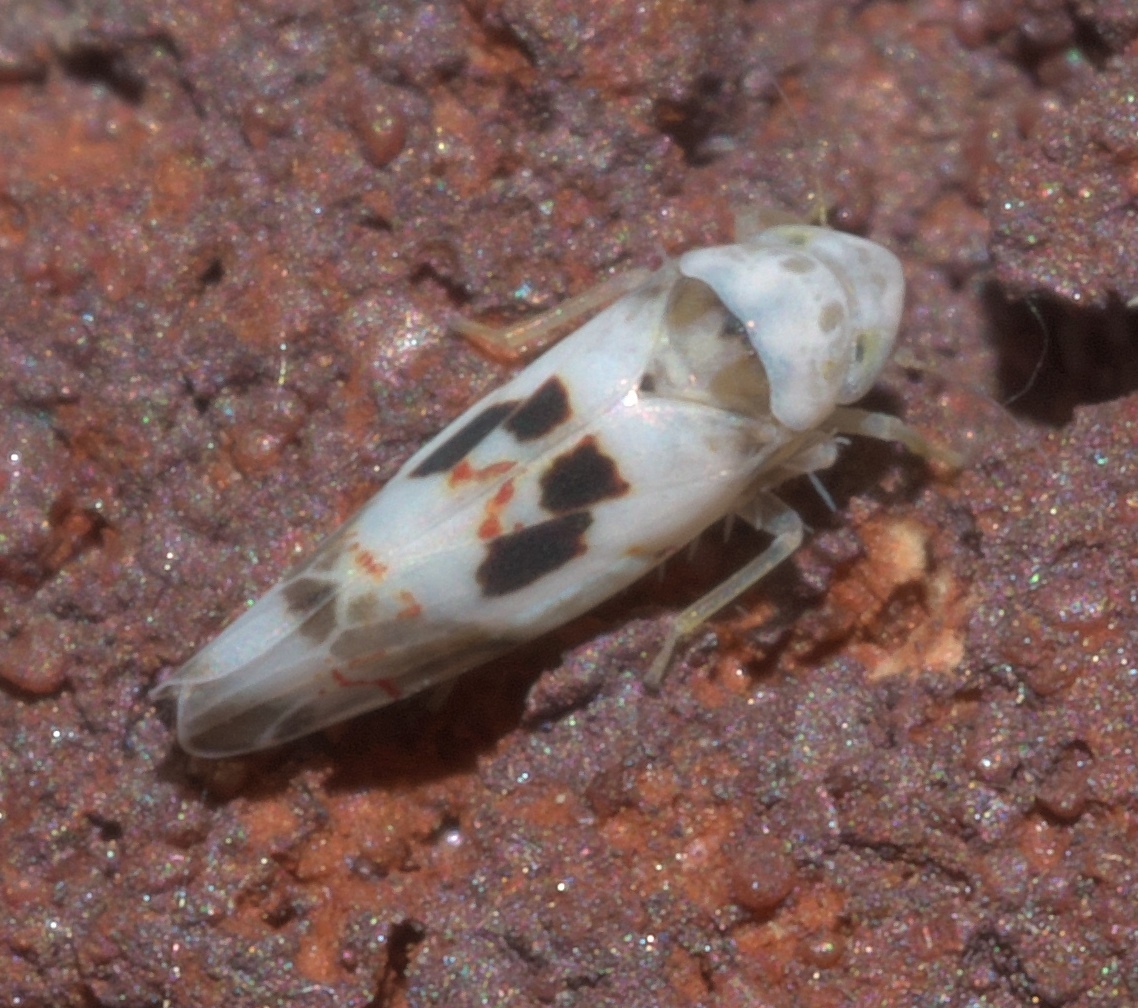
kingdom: Animalia
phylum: Arthropoda
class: Insecta
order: Hemiptera
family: Cicadellidae
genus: Eratoneura
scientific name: Eratoneura hymettana
